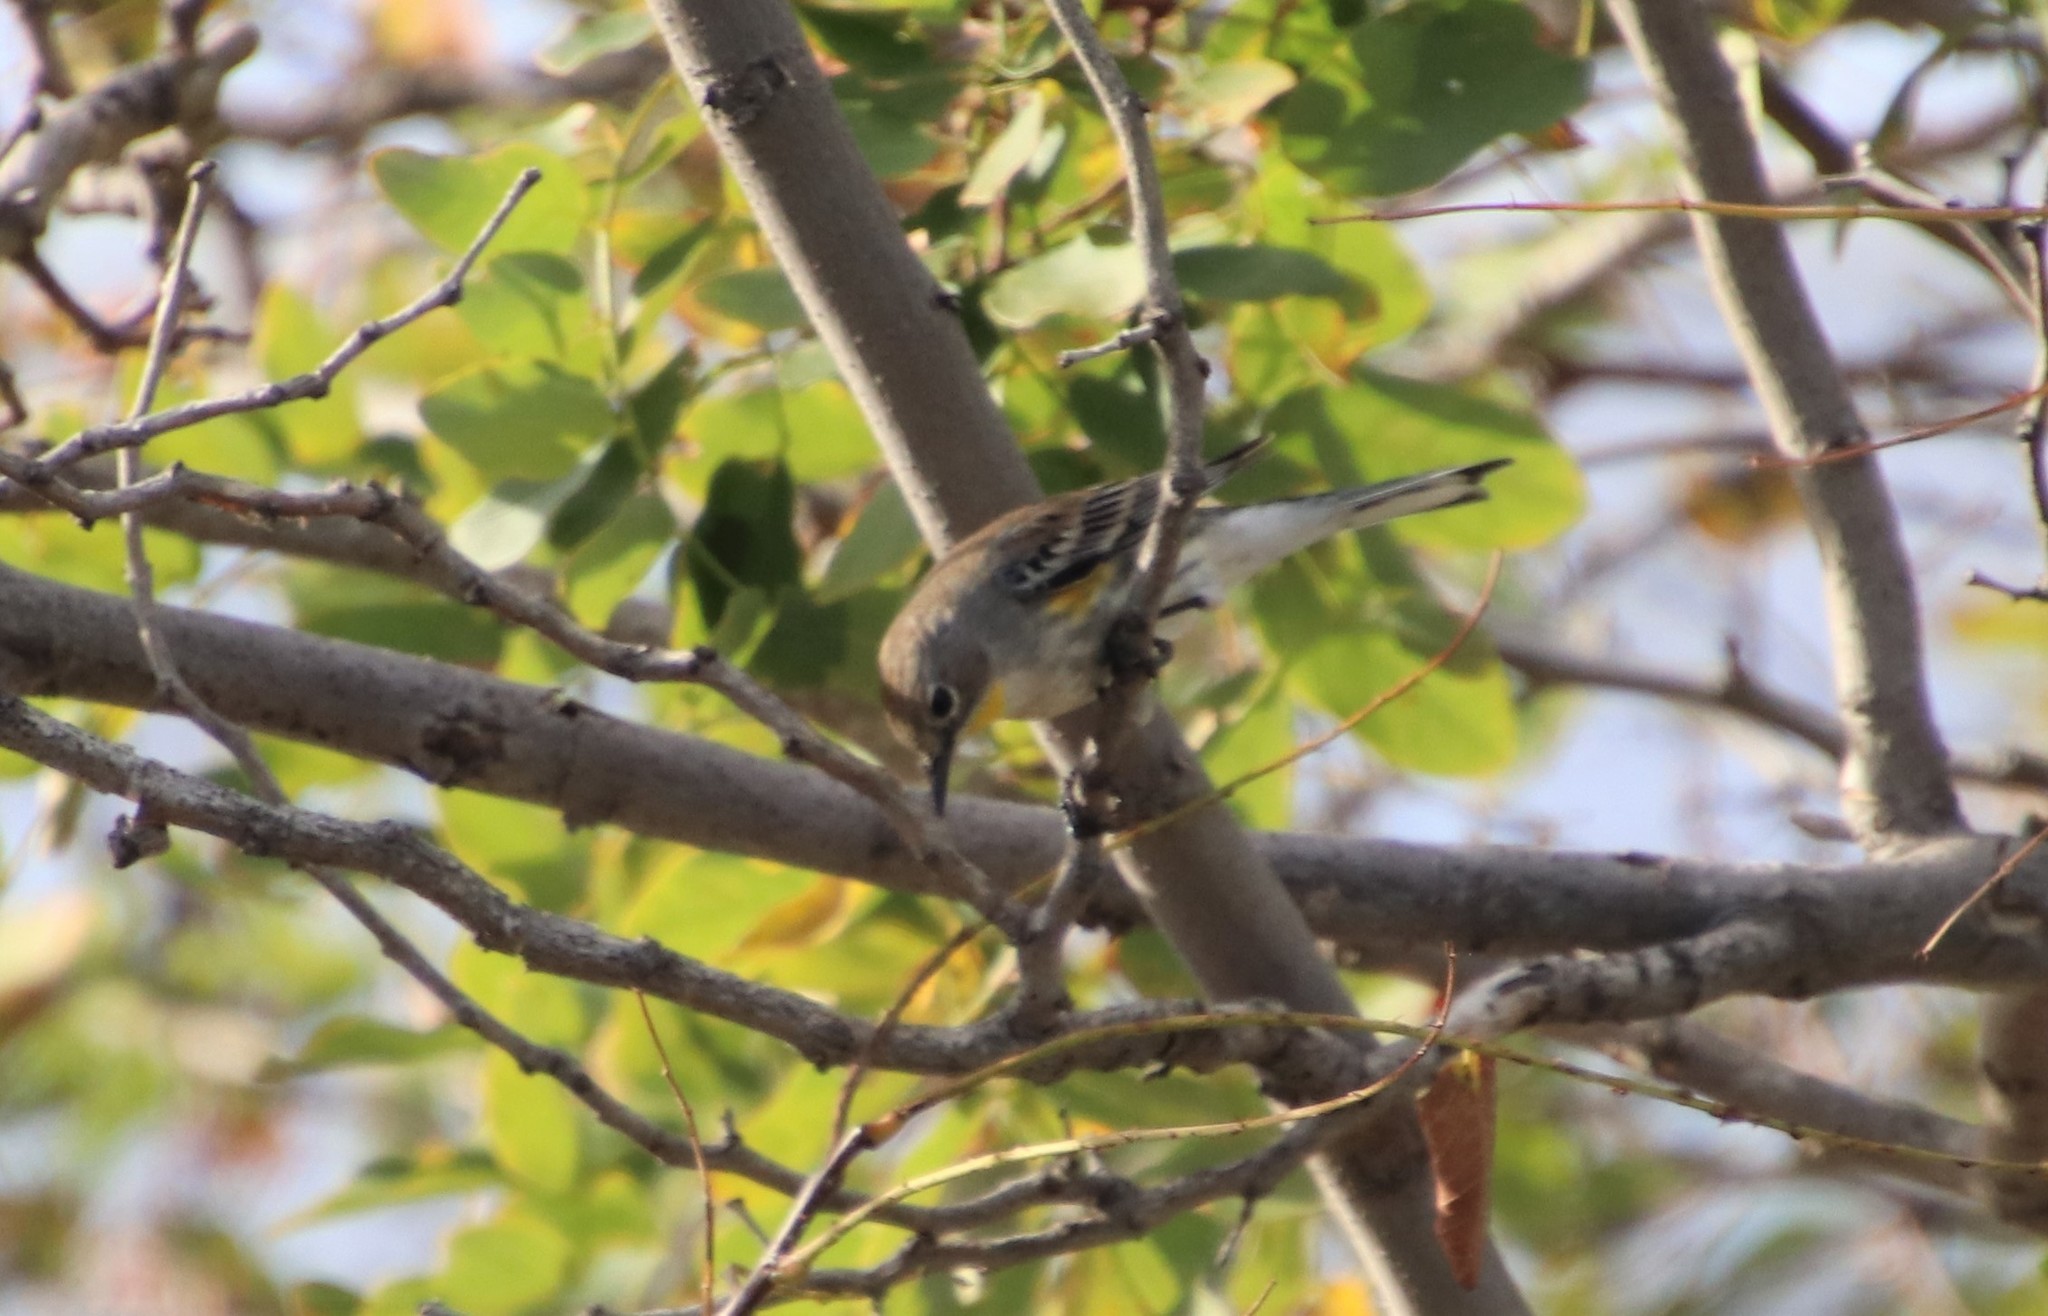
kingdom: Animalia
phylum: Chordata
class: Aves
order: Passeriformes
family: Parulidae
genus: Setophaga
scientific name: Setophaga auduboni
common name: Audubon's warbler
